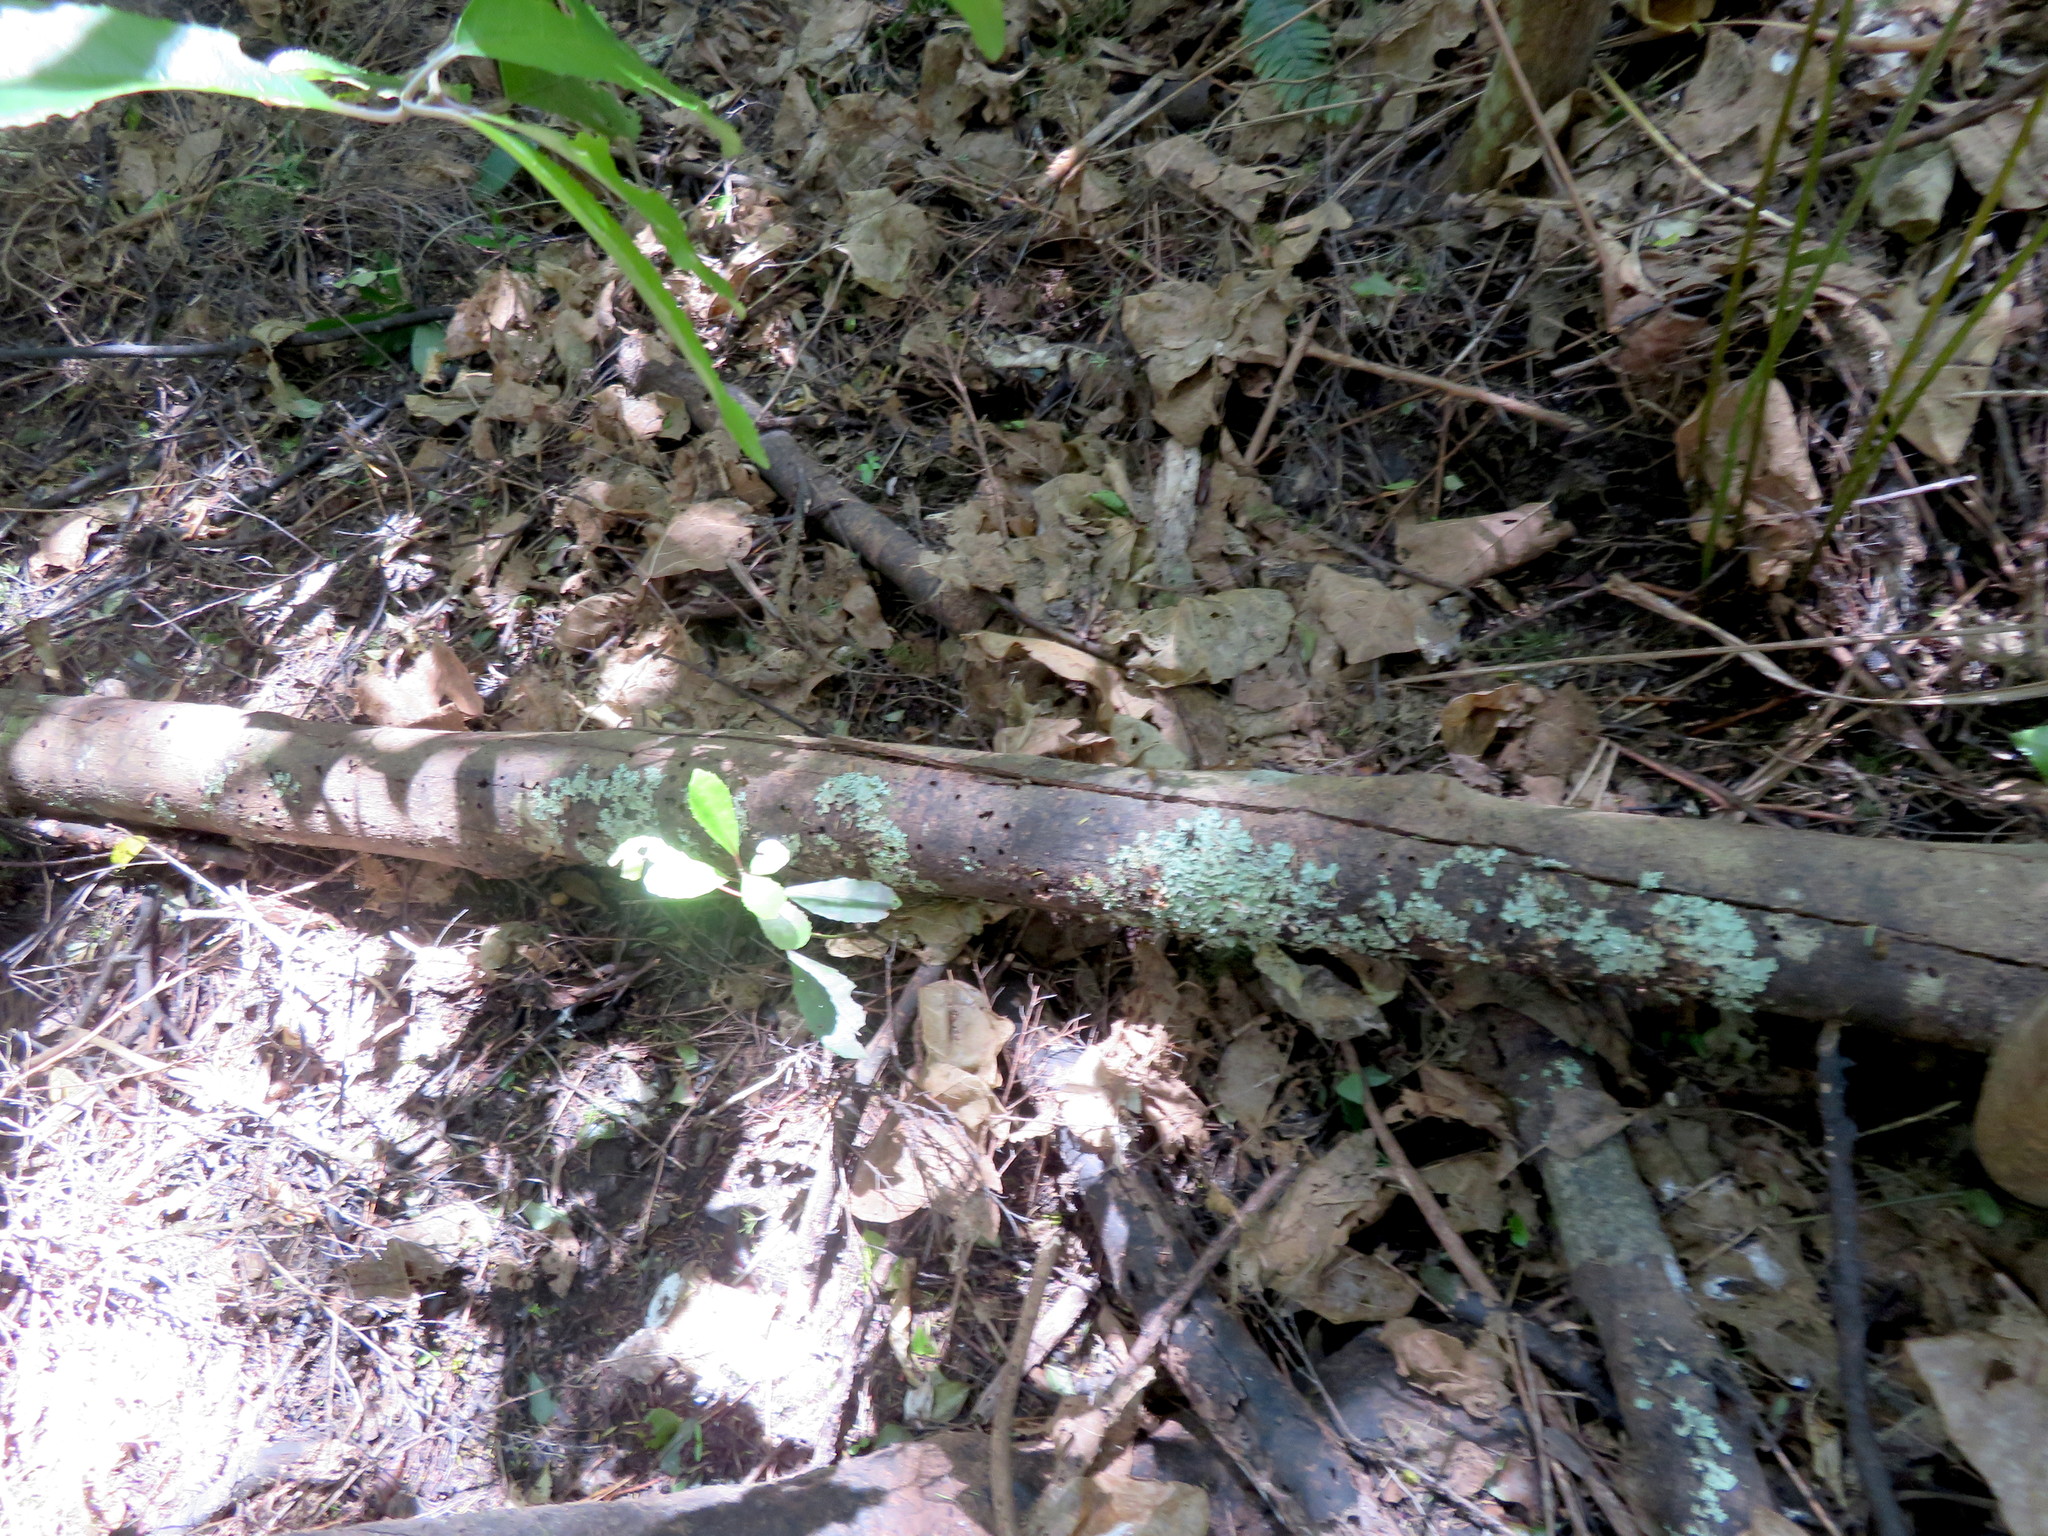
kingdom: Plantae
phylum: Tracheophyta
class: Magnoliopsida
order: Laurales
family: Monimiaceae
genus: Hedycarya
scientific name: Hedycarya arborea
